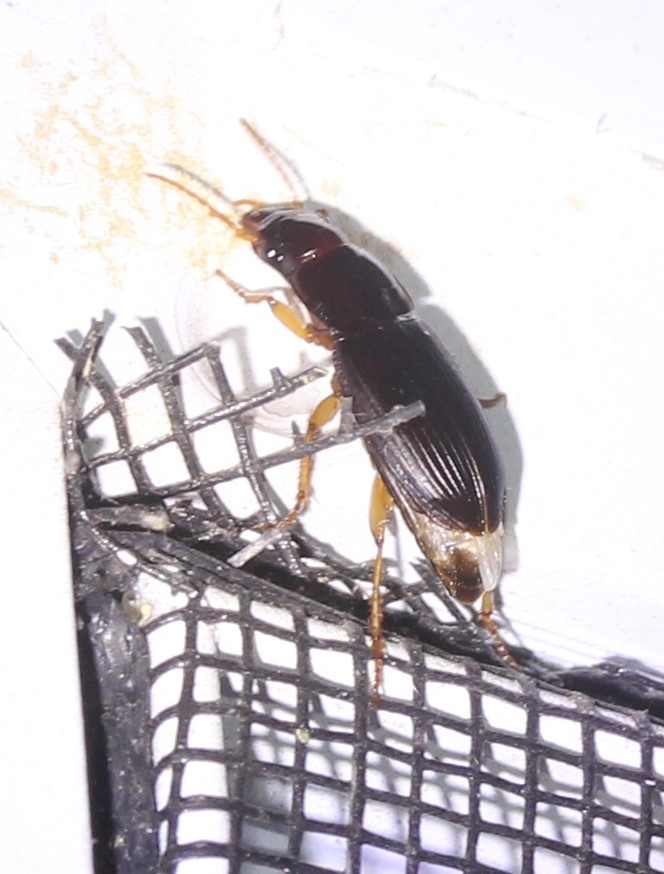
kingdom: Animalia
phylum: Arthropoda
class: Insecta
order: Coleoptera
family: Carabidae
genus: Harpalus
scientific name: Harpalus
